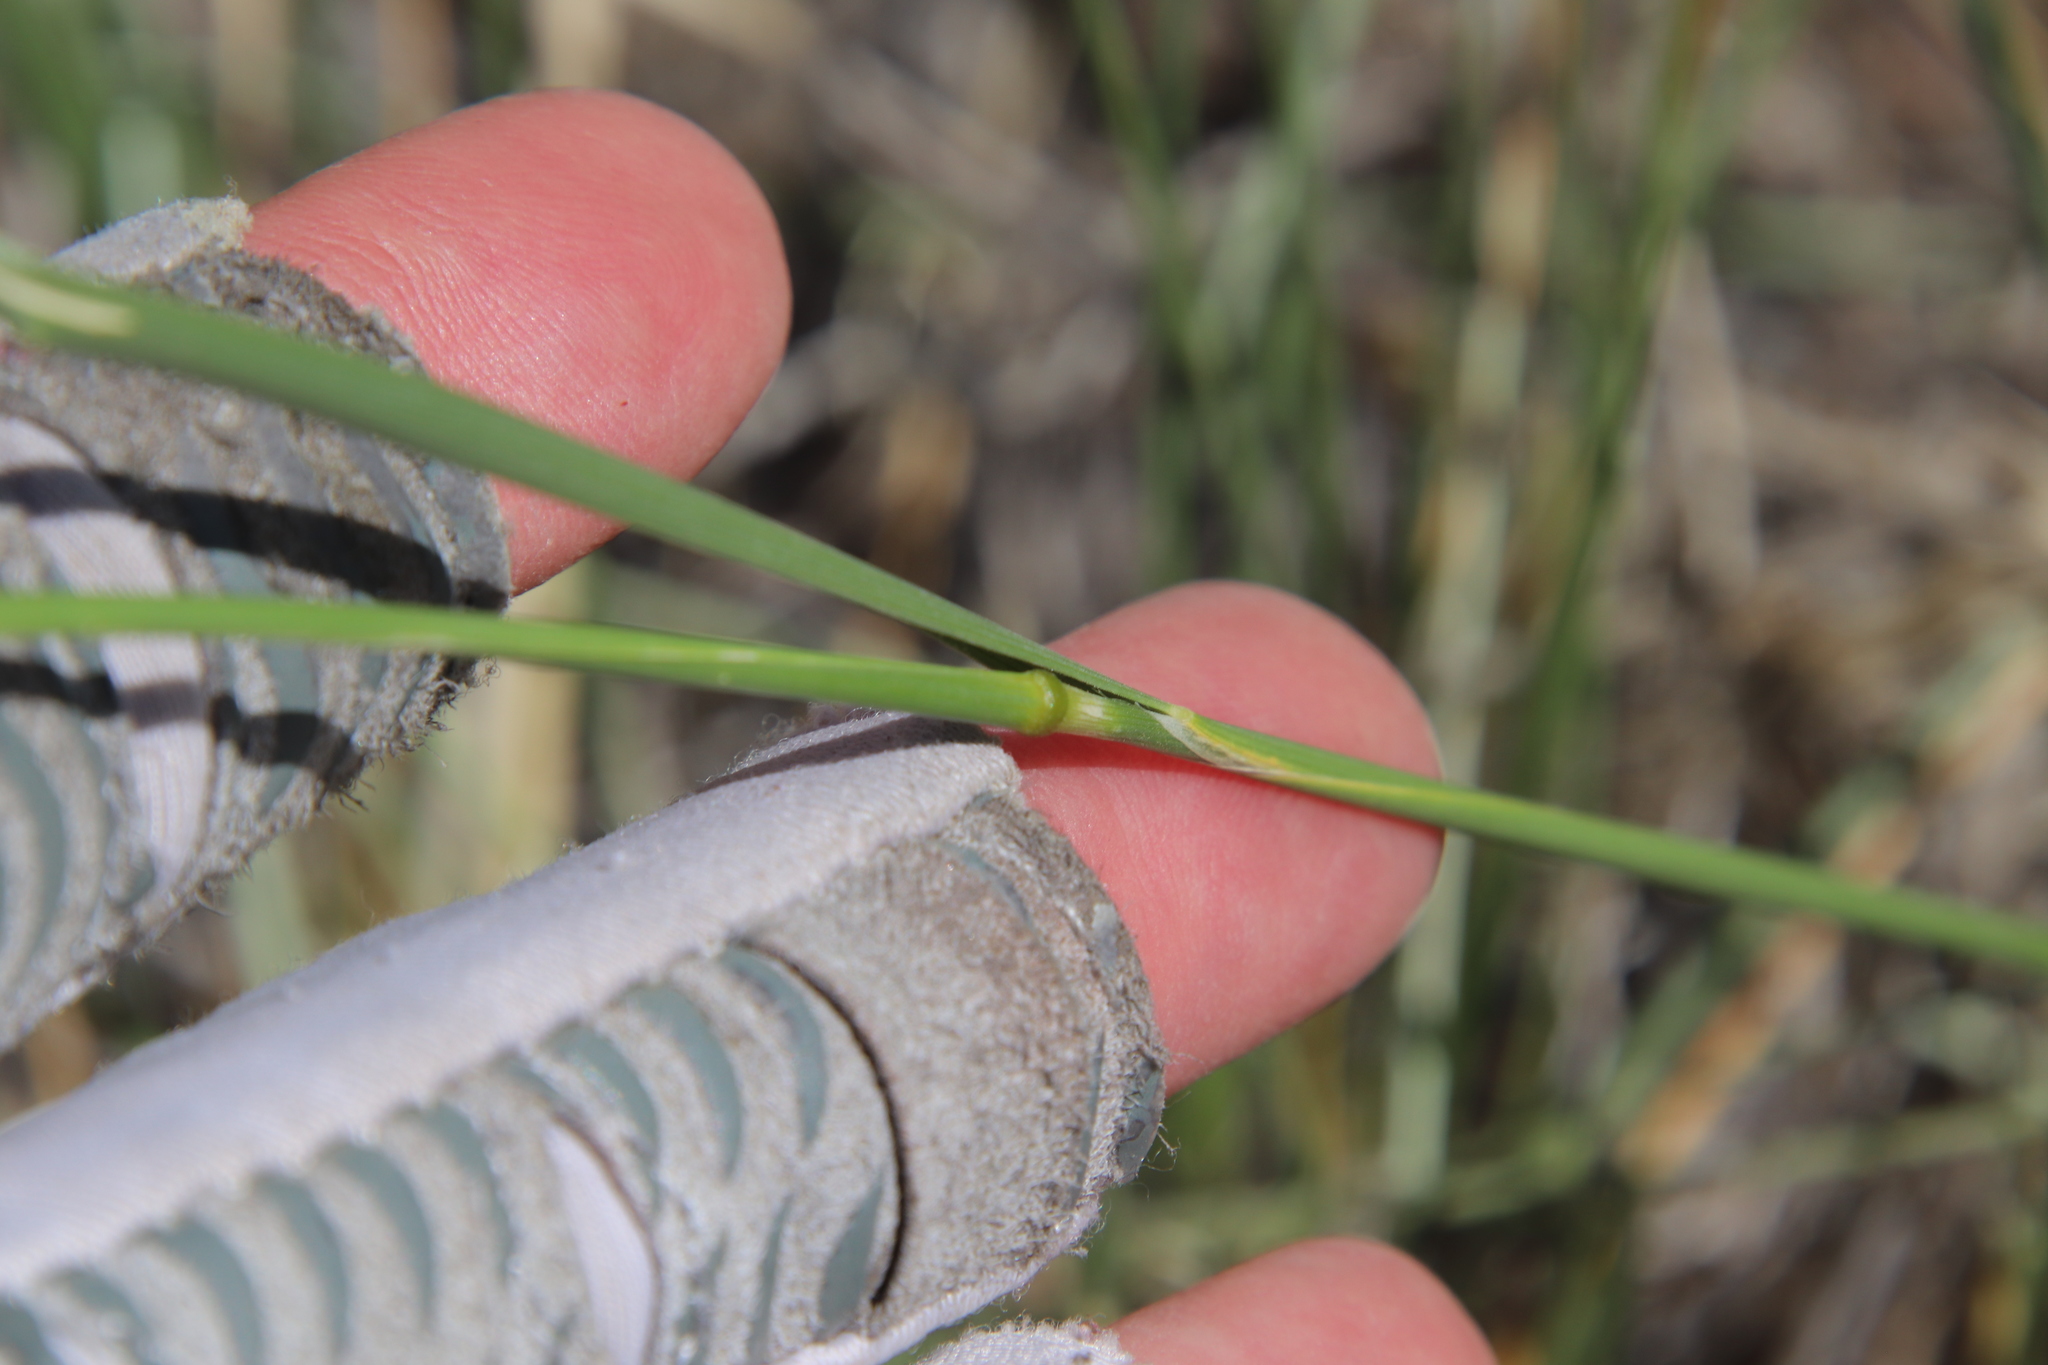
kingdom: Plantae
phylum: Tracheophyta
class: Liliopsida
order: Poales
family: Poaceae
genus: Eriocoma
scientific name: Eriocoma hymenoides
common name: Indian mountain ricegrass
